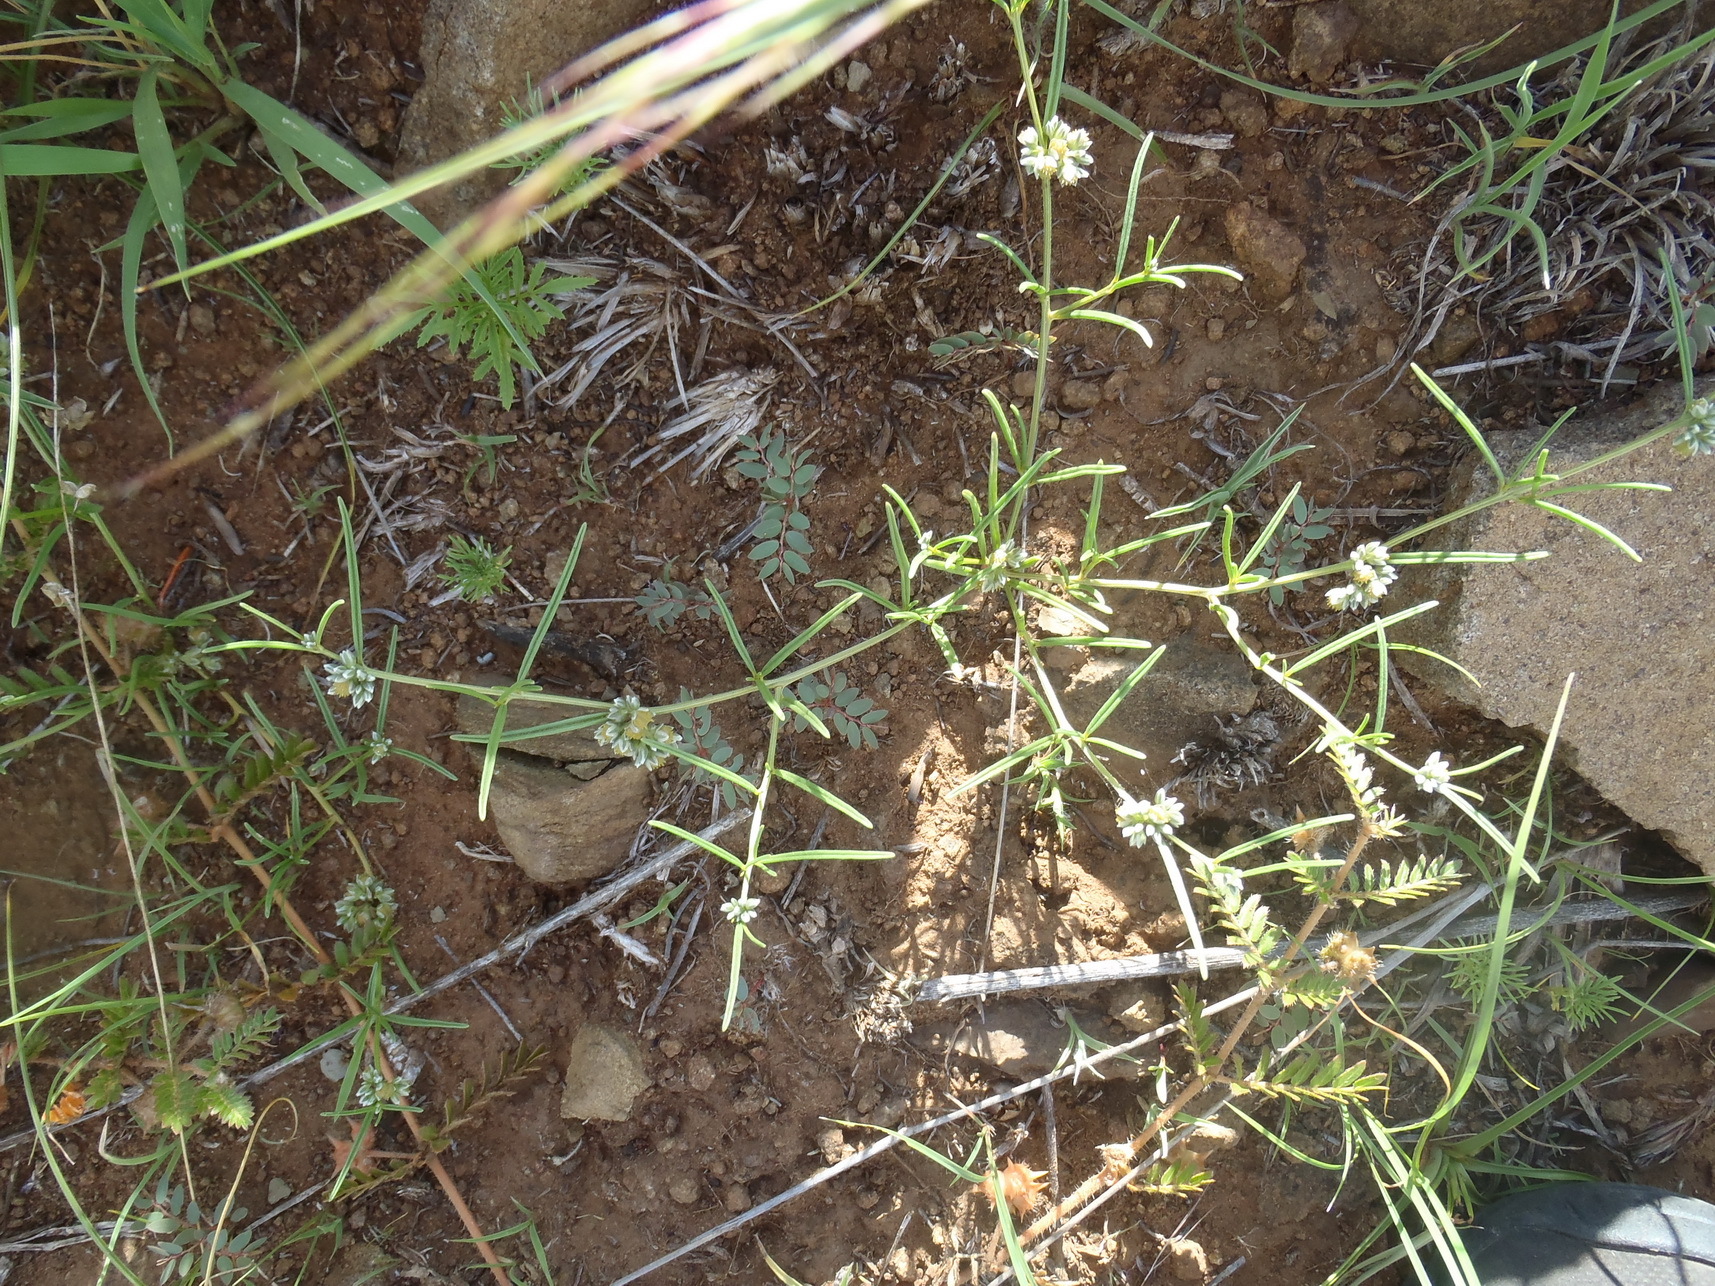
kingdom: Plantae
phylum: Tracheophyta
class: Magnoliopsida
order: Caryophyllales
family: Limeaceae
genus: Limeum
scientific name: Limeum sulcatum
